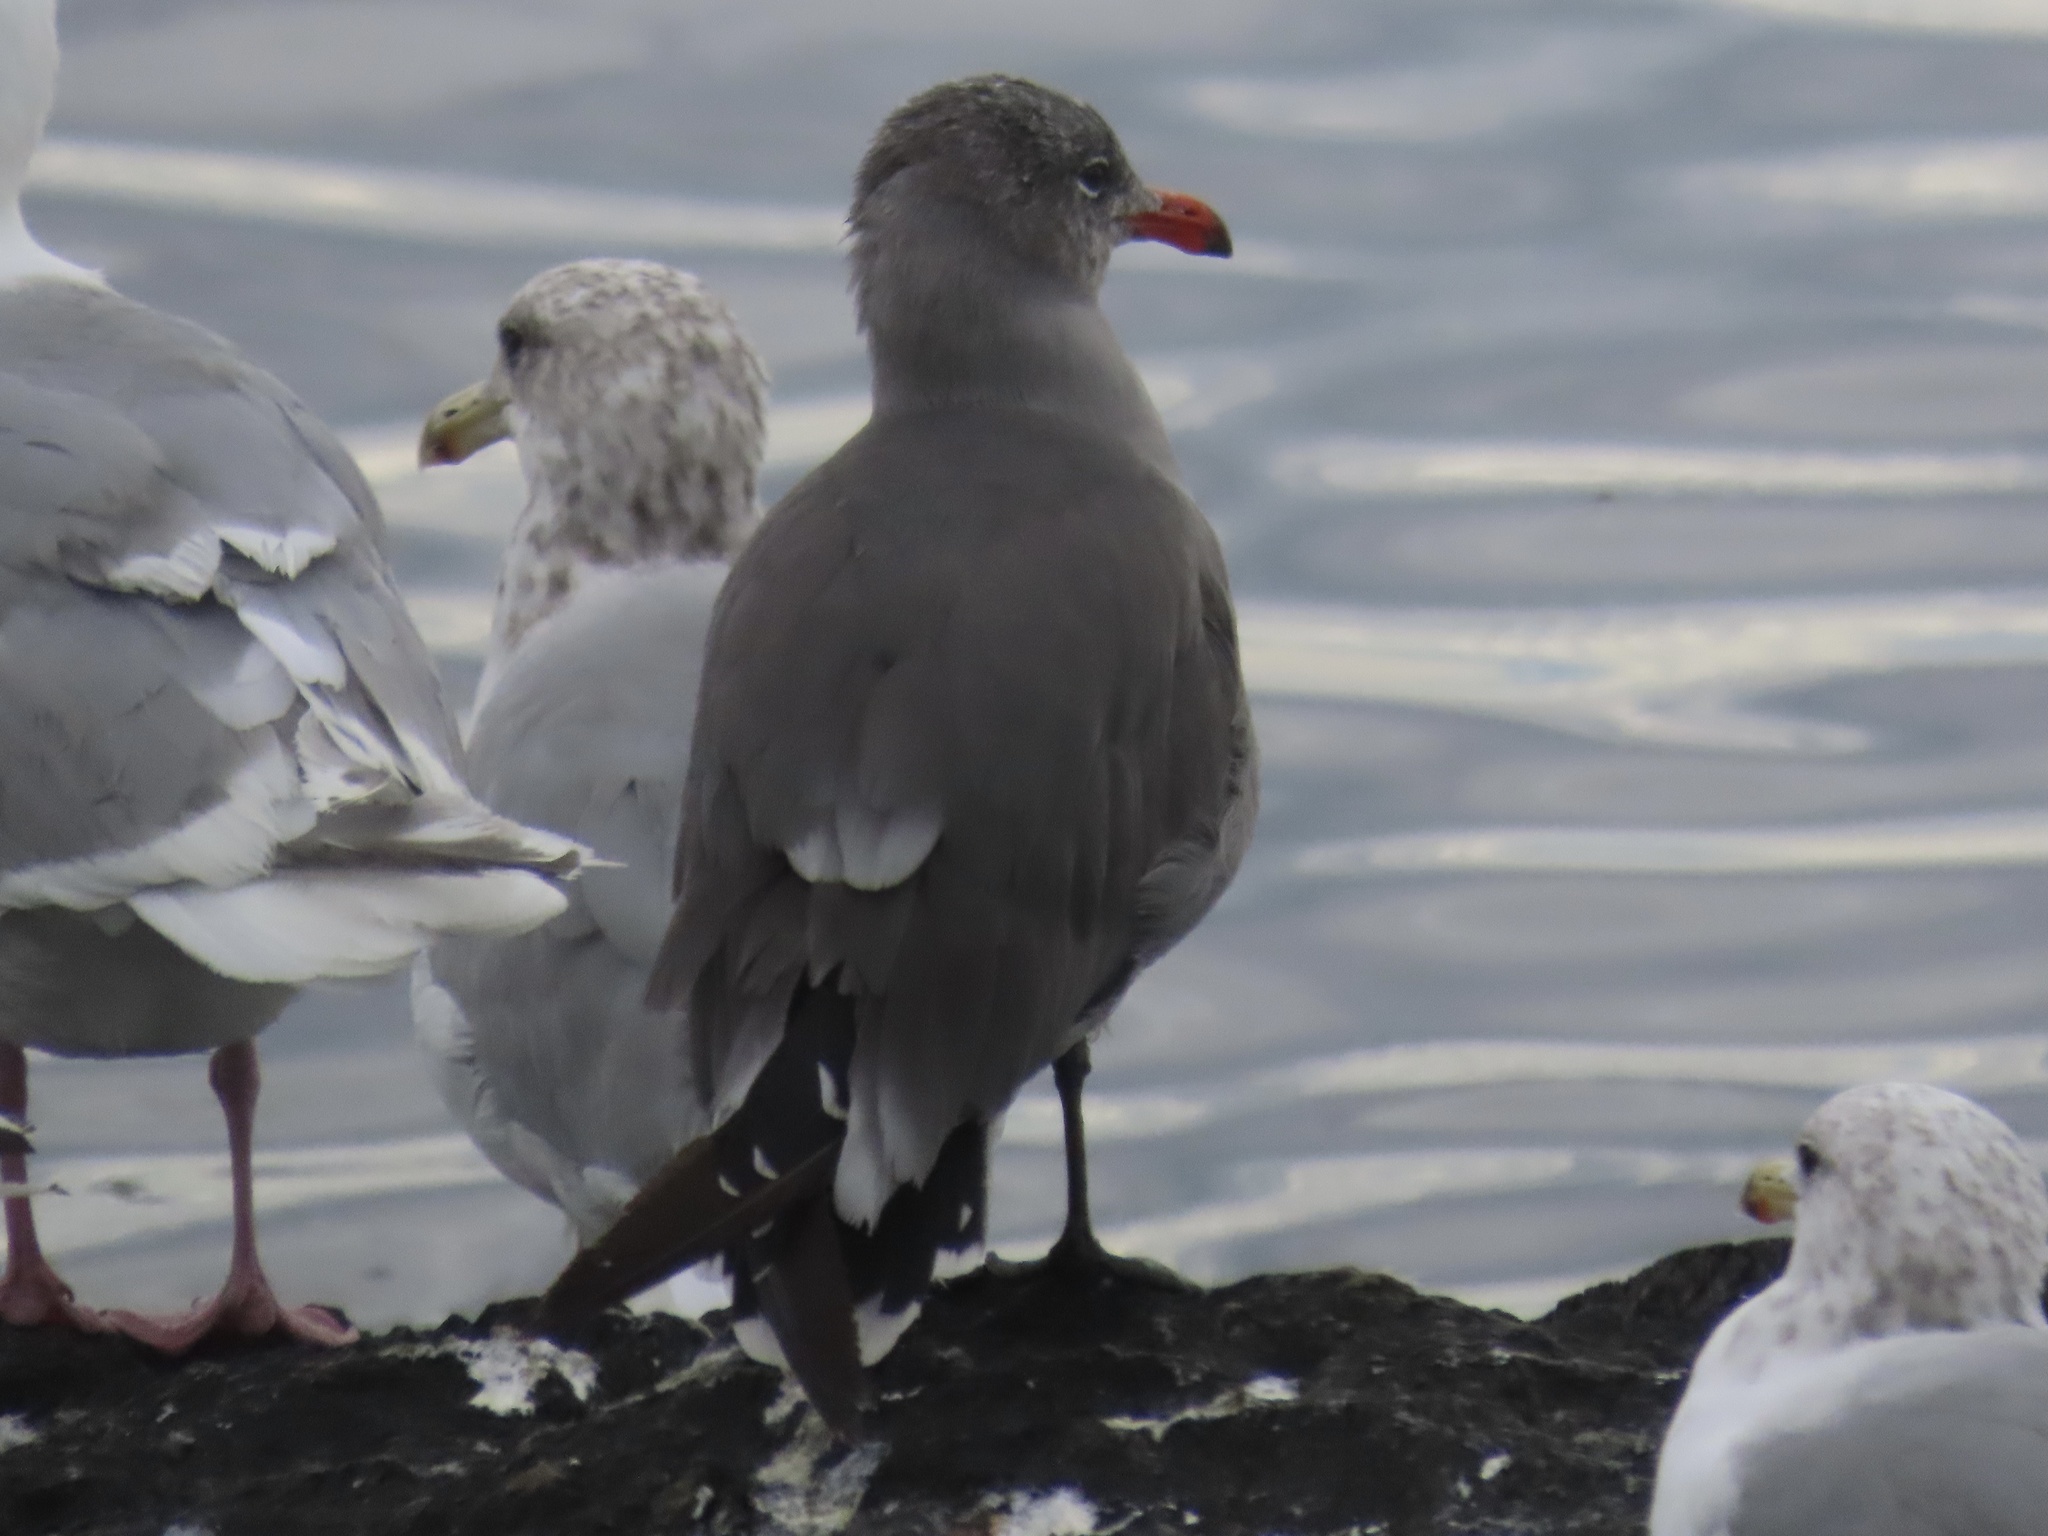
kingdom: Animalia
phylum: Chordata
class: Aves
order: Charadriiformes
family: Laridae
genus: Larus
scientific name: Larus heermanni
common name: Heermann's gull
